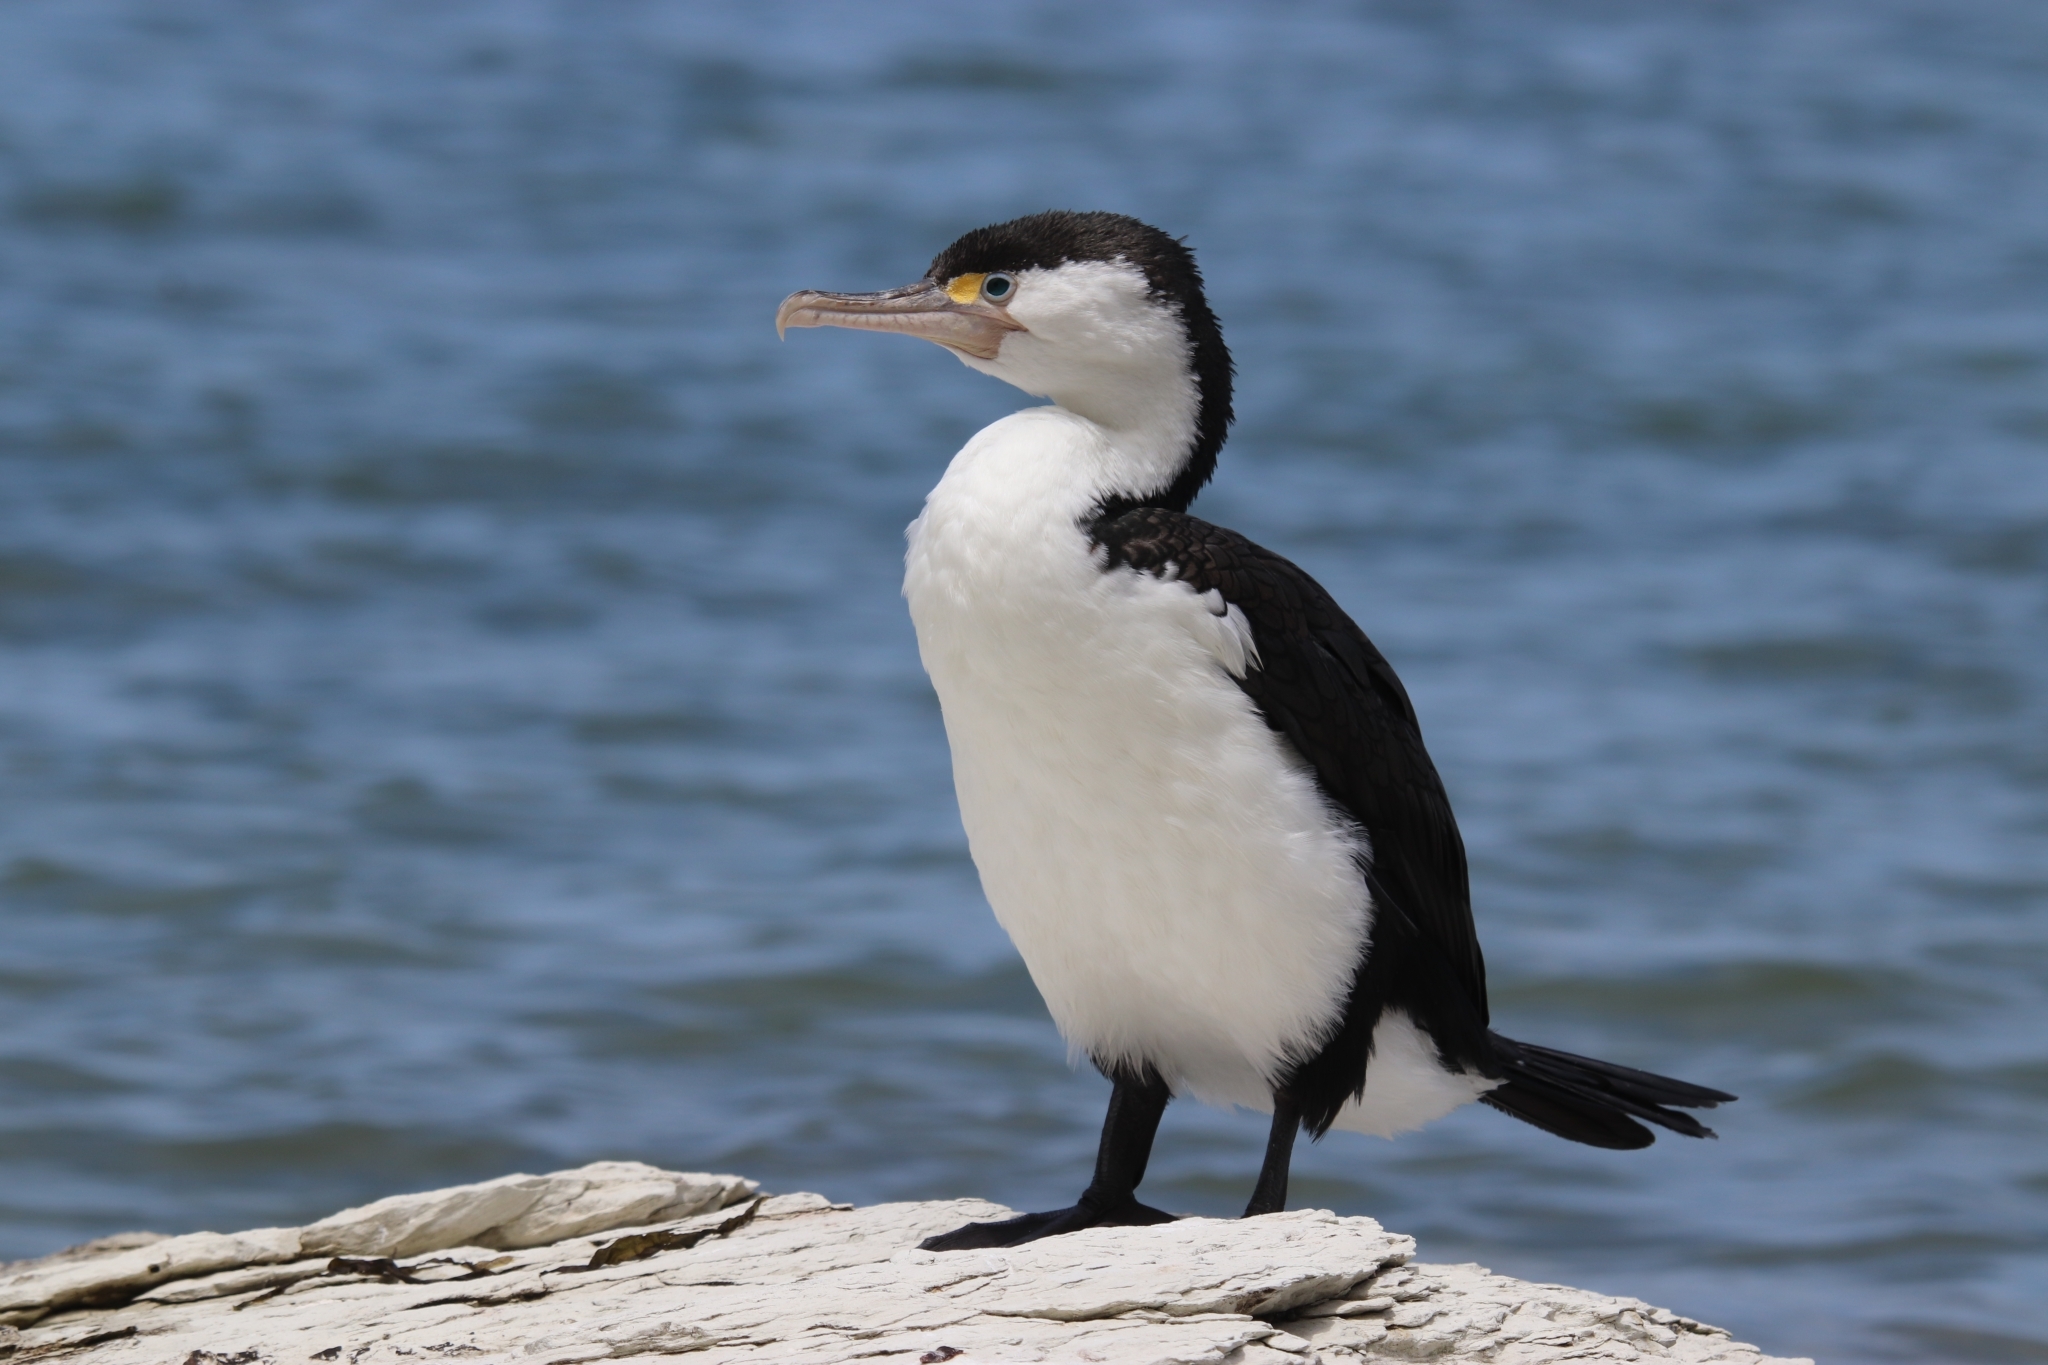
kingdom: Animalia
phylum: Chordata
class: Aves
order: Suliformes
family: Phalacrocoracidae
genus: Phalacrocorax
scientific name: Phalacrocorax varius
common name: Pied cormorant
